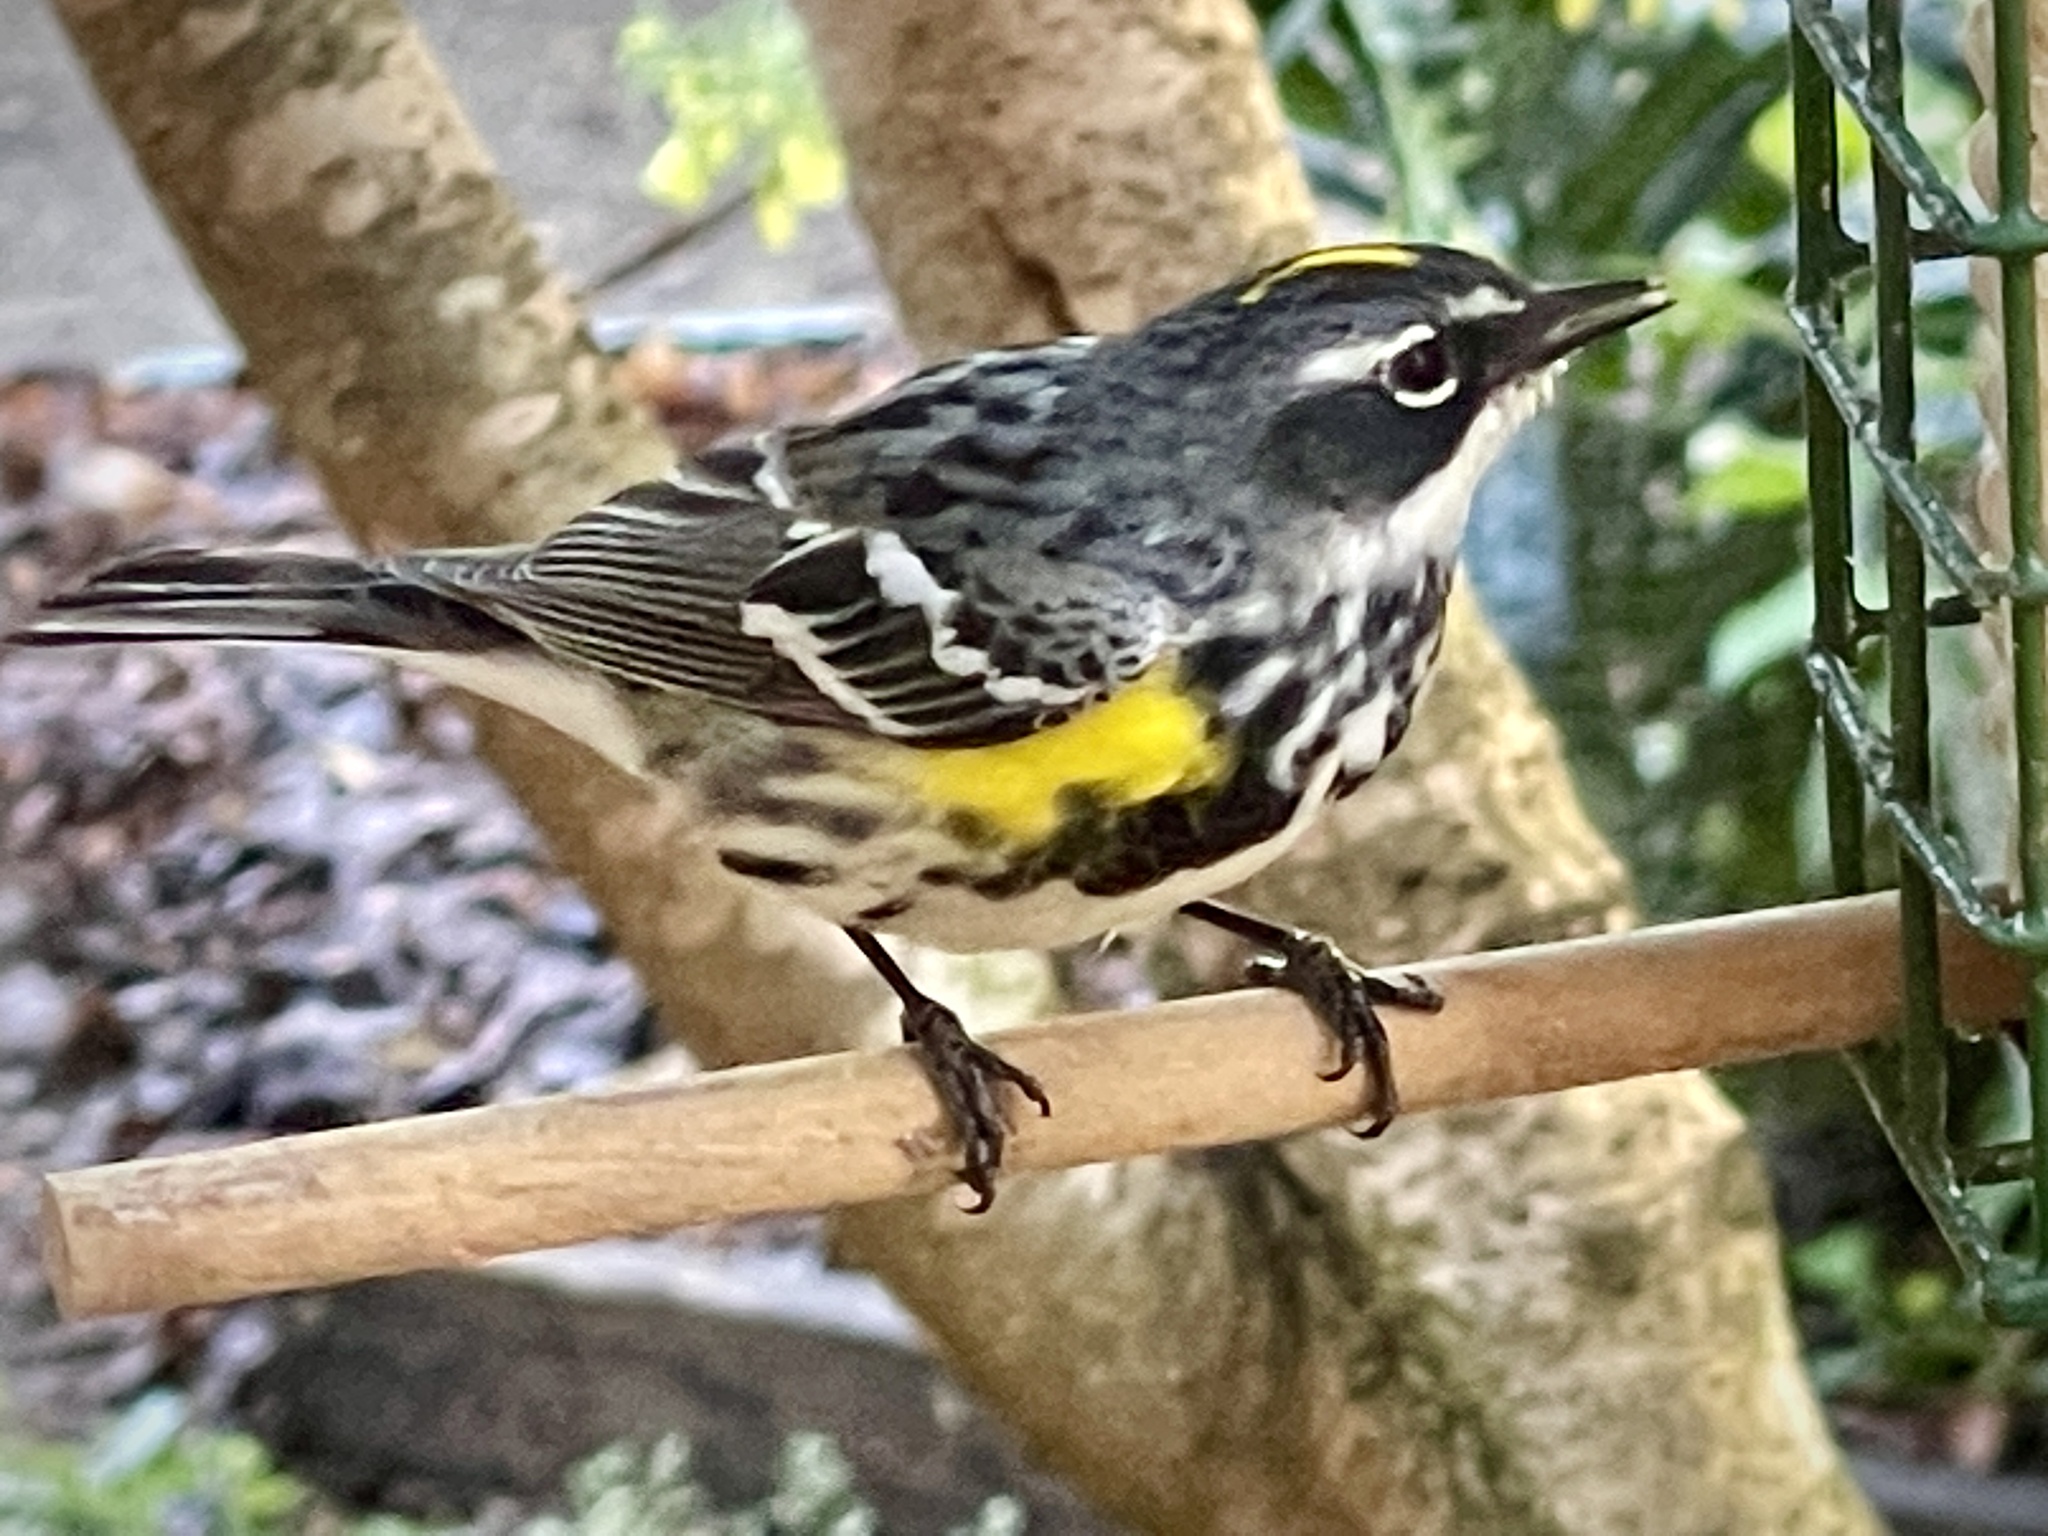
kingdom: Animalia
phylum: Chordata
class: Aves
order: Passeriformes
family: Parulidae
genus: Setophaga
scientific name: Setophaga coronata
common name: Myrtle warbler
